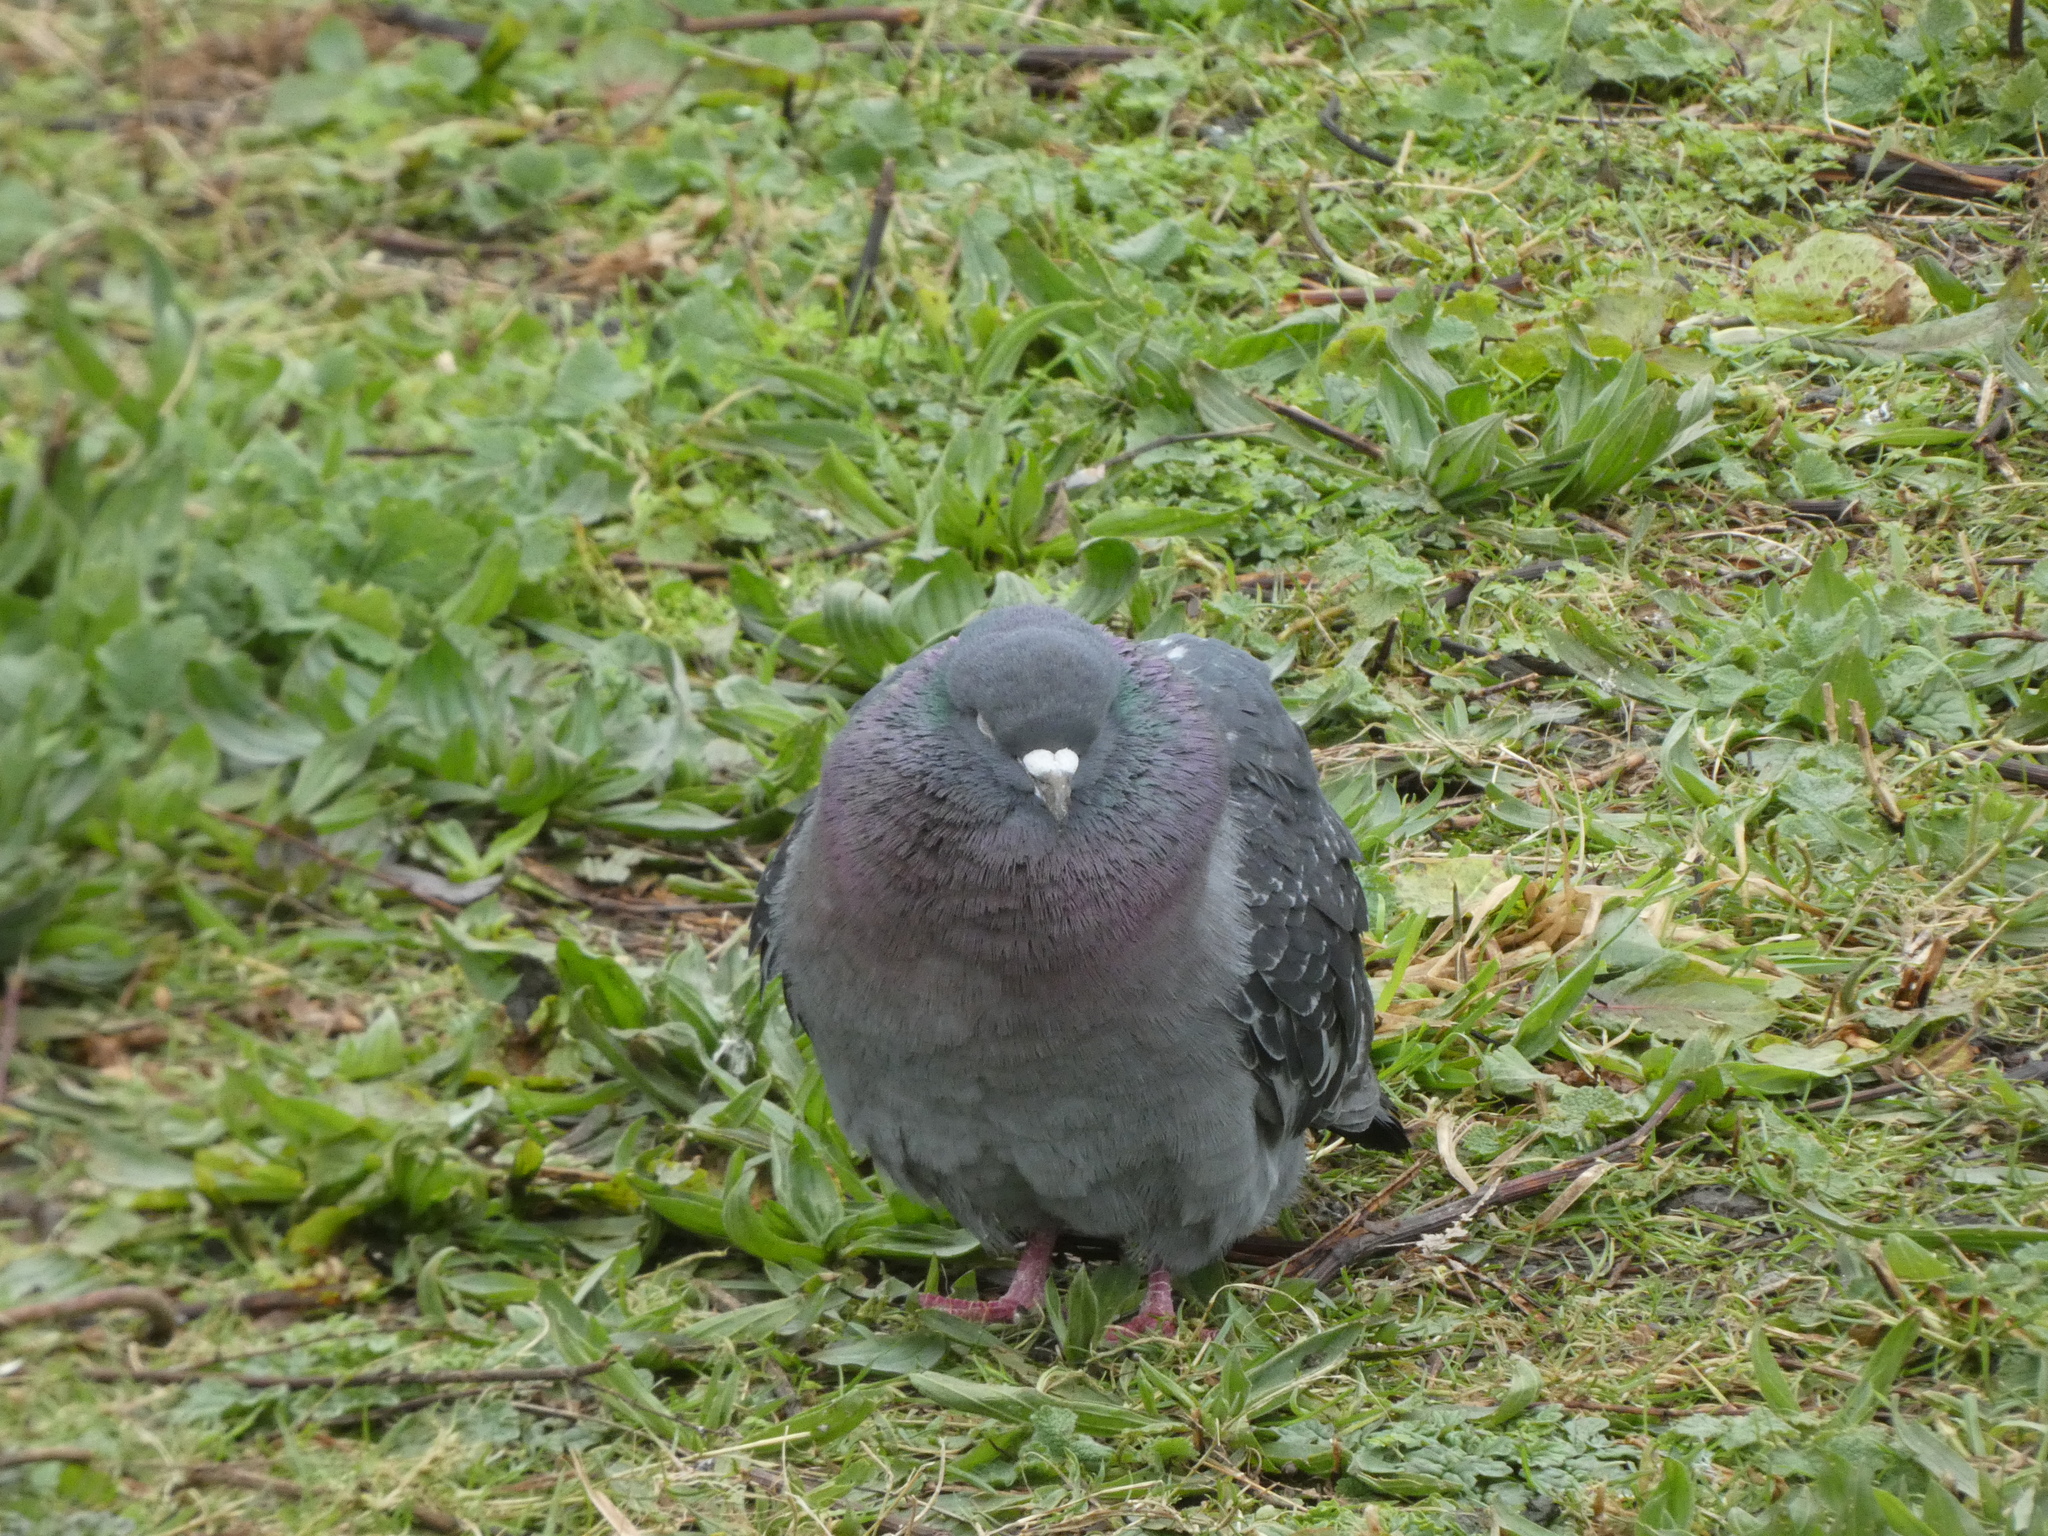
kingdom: Animalia
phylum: Chordata
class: Aves
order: Columbiformes
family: Columbidae
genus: Columba
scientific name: Columba livia
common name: Rock pigeon
